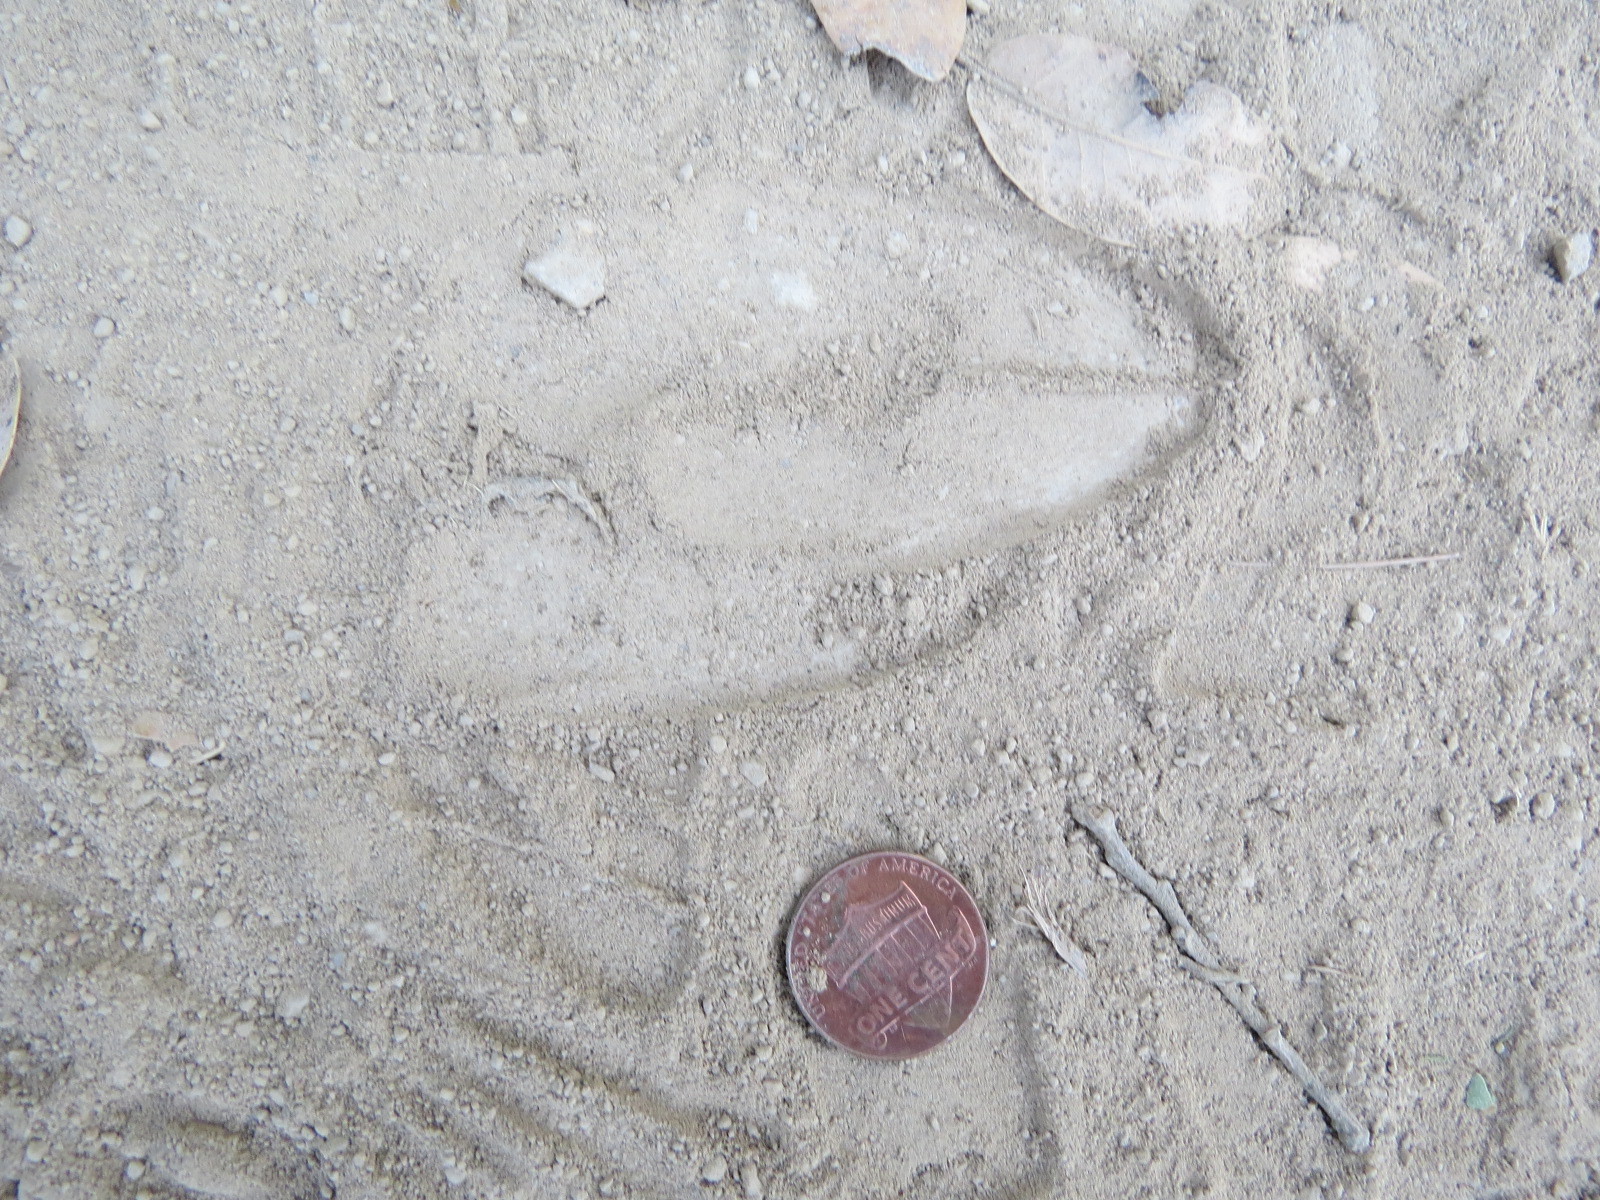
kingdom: Animalia
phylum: Chordata
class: Mammalia
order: Artiodactyla
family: Cervidae
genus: Odocoileus
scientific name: Odocoileus hemionus
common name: Mule deer
